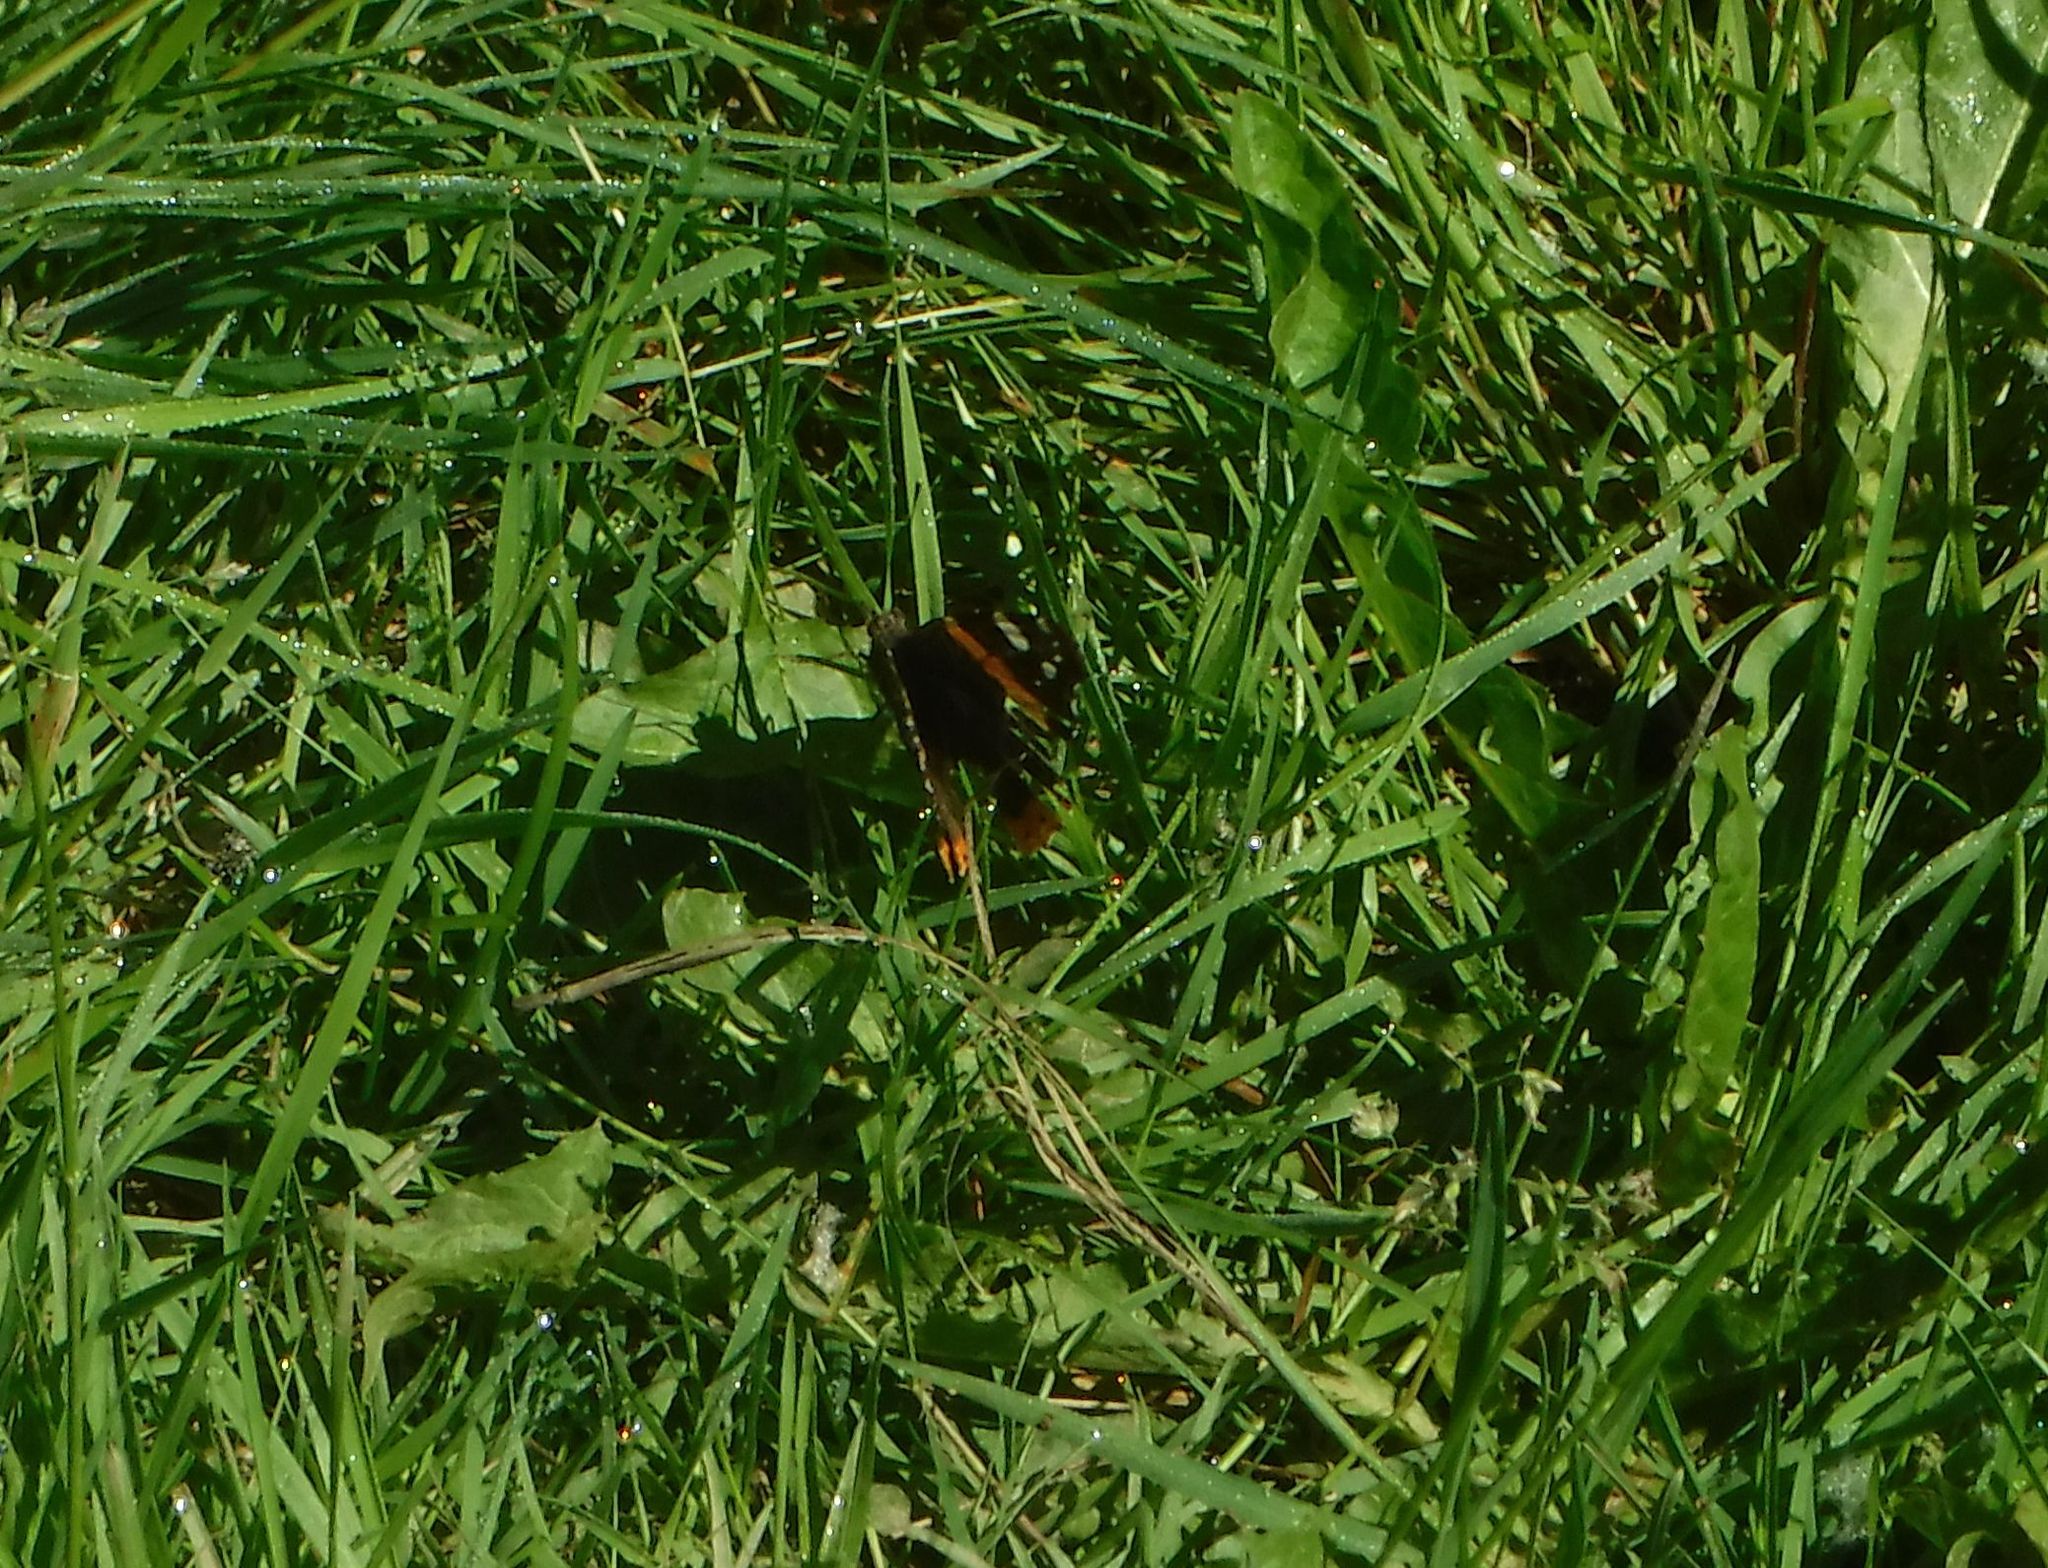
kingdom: Animalia
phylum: Arthropoda
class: Insecta
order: Lepidoptera
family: Nymphalidae
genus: Vanessa
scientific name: Vanessa atalanta
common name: Red admiral
